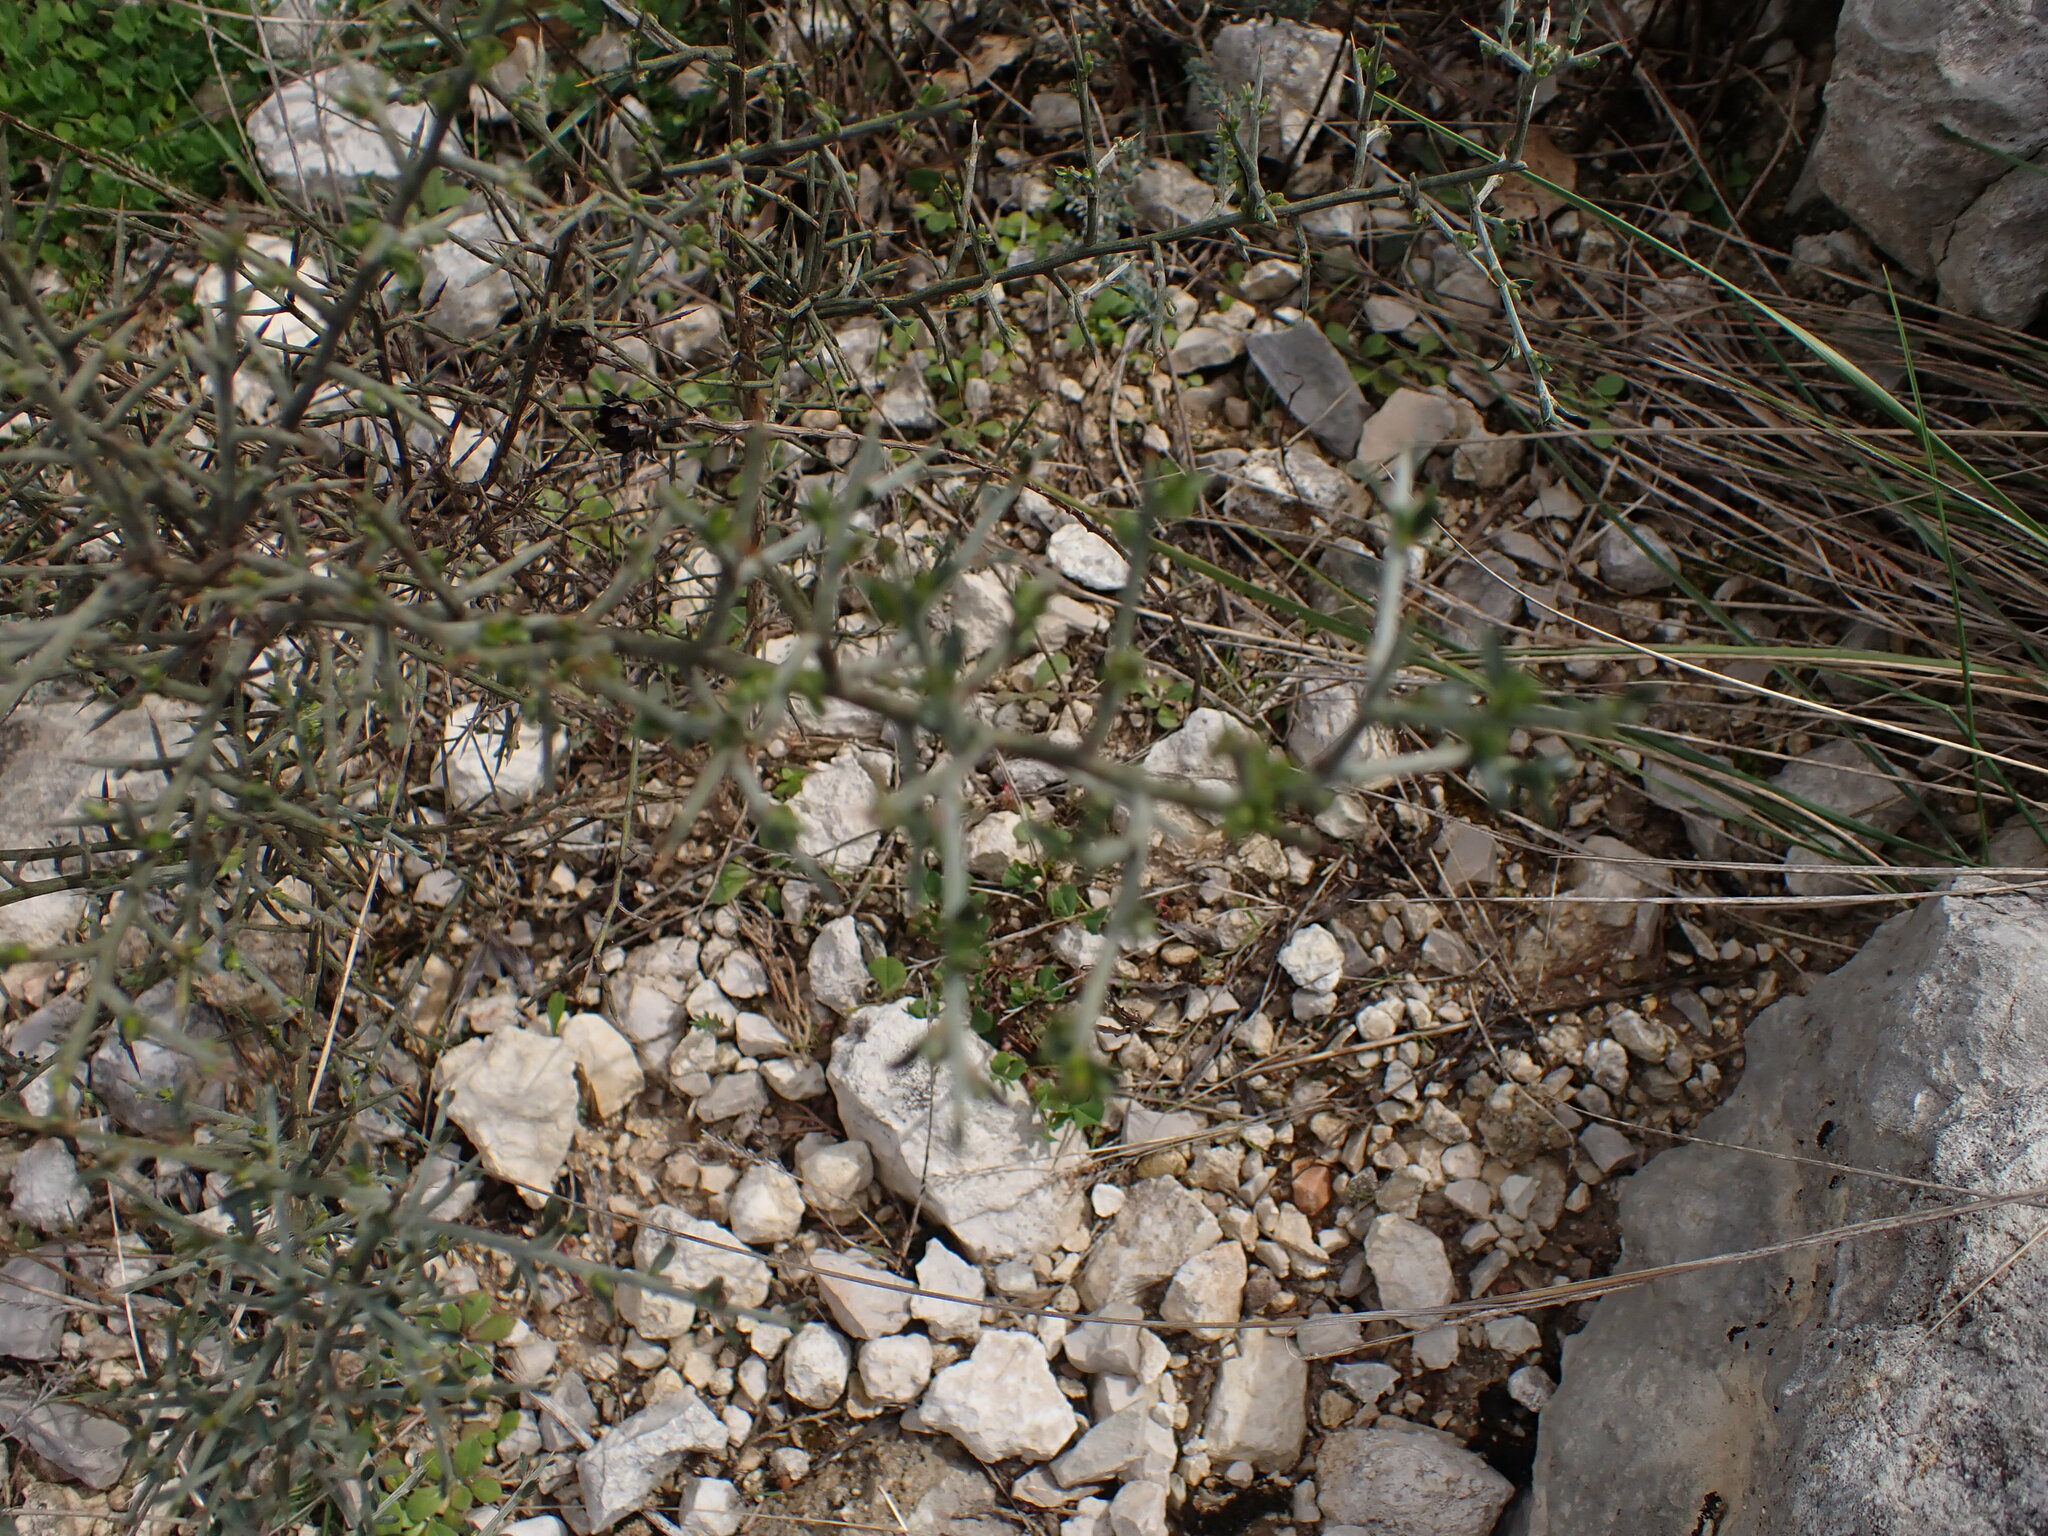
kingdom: Plantae
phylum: Tracheophyta
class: Magnoliopsida
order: Fabales
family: Fabaceae
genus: Genista
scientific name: Genista scorpius
